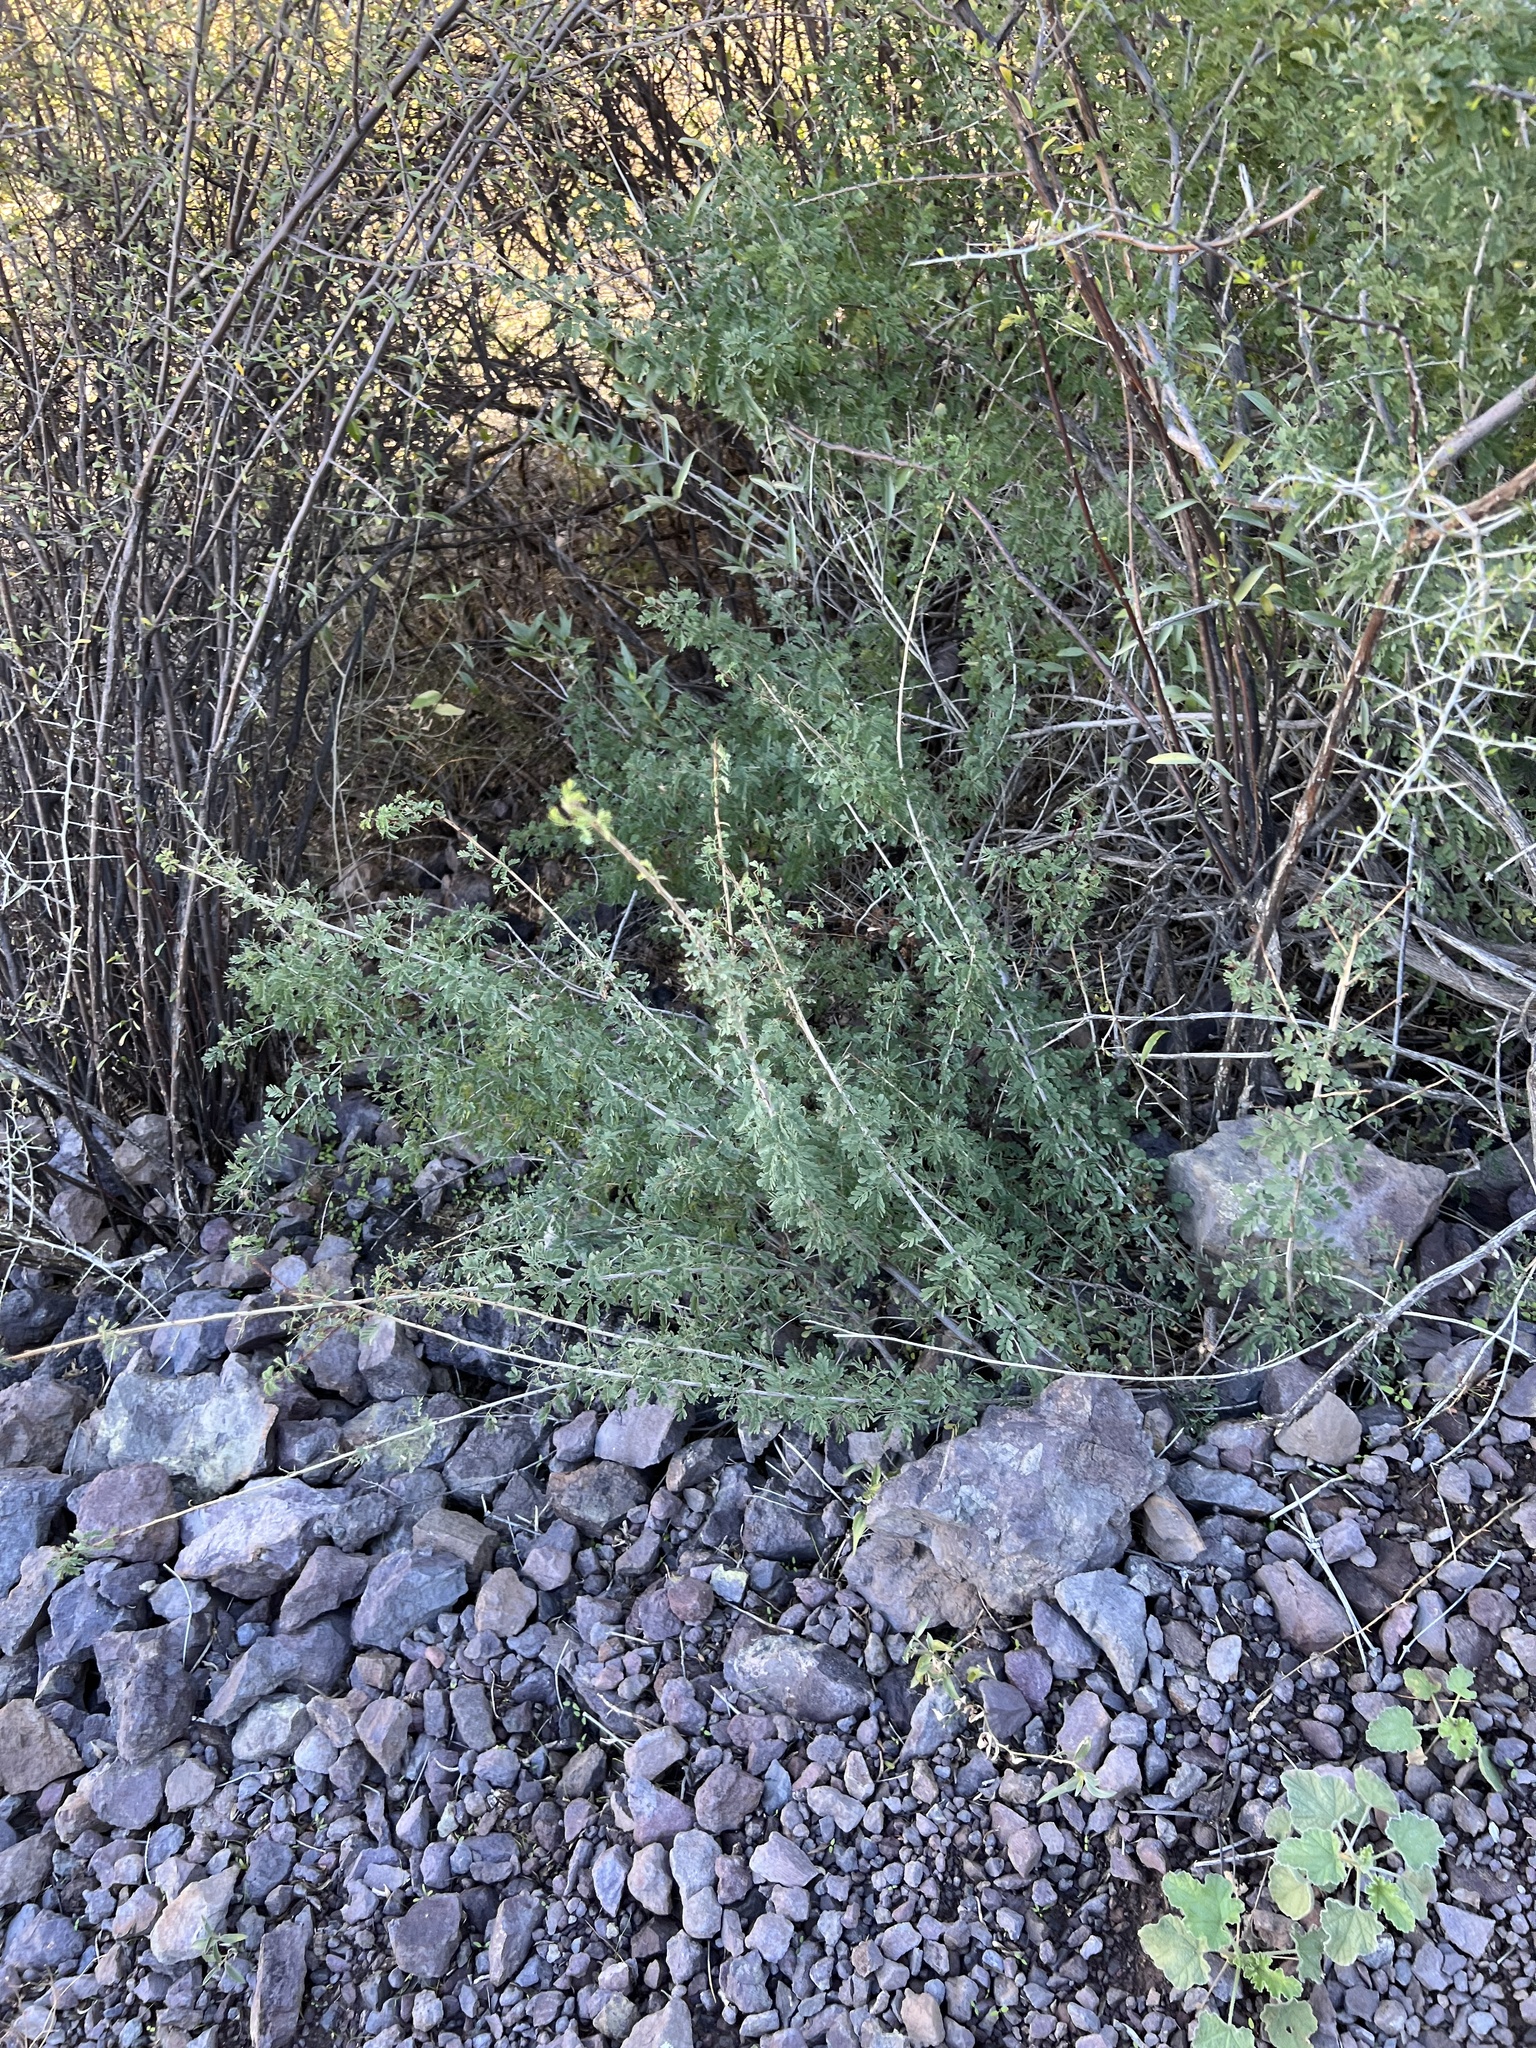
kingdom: Plantae
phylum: Tracheophyta
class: Magnoliopsida
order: Fabales
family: Fabaceae
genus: Senegalia
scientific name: Senegalia greggii
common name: Texas-mimosa
